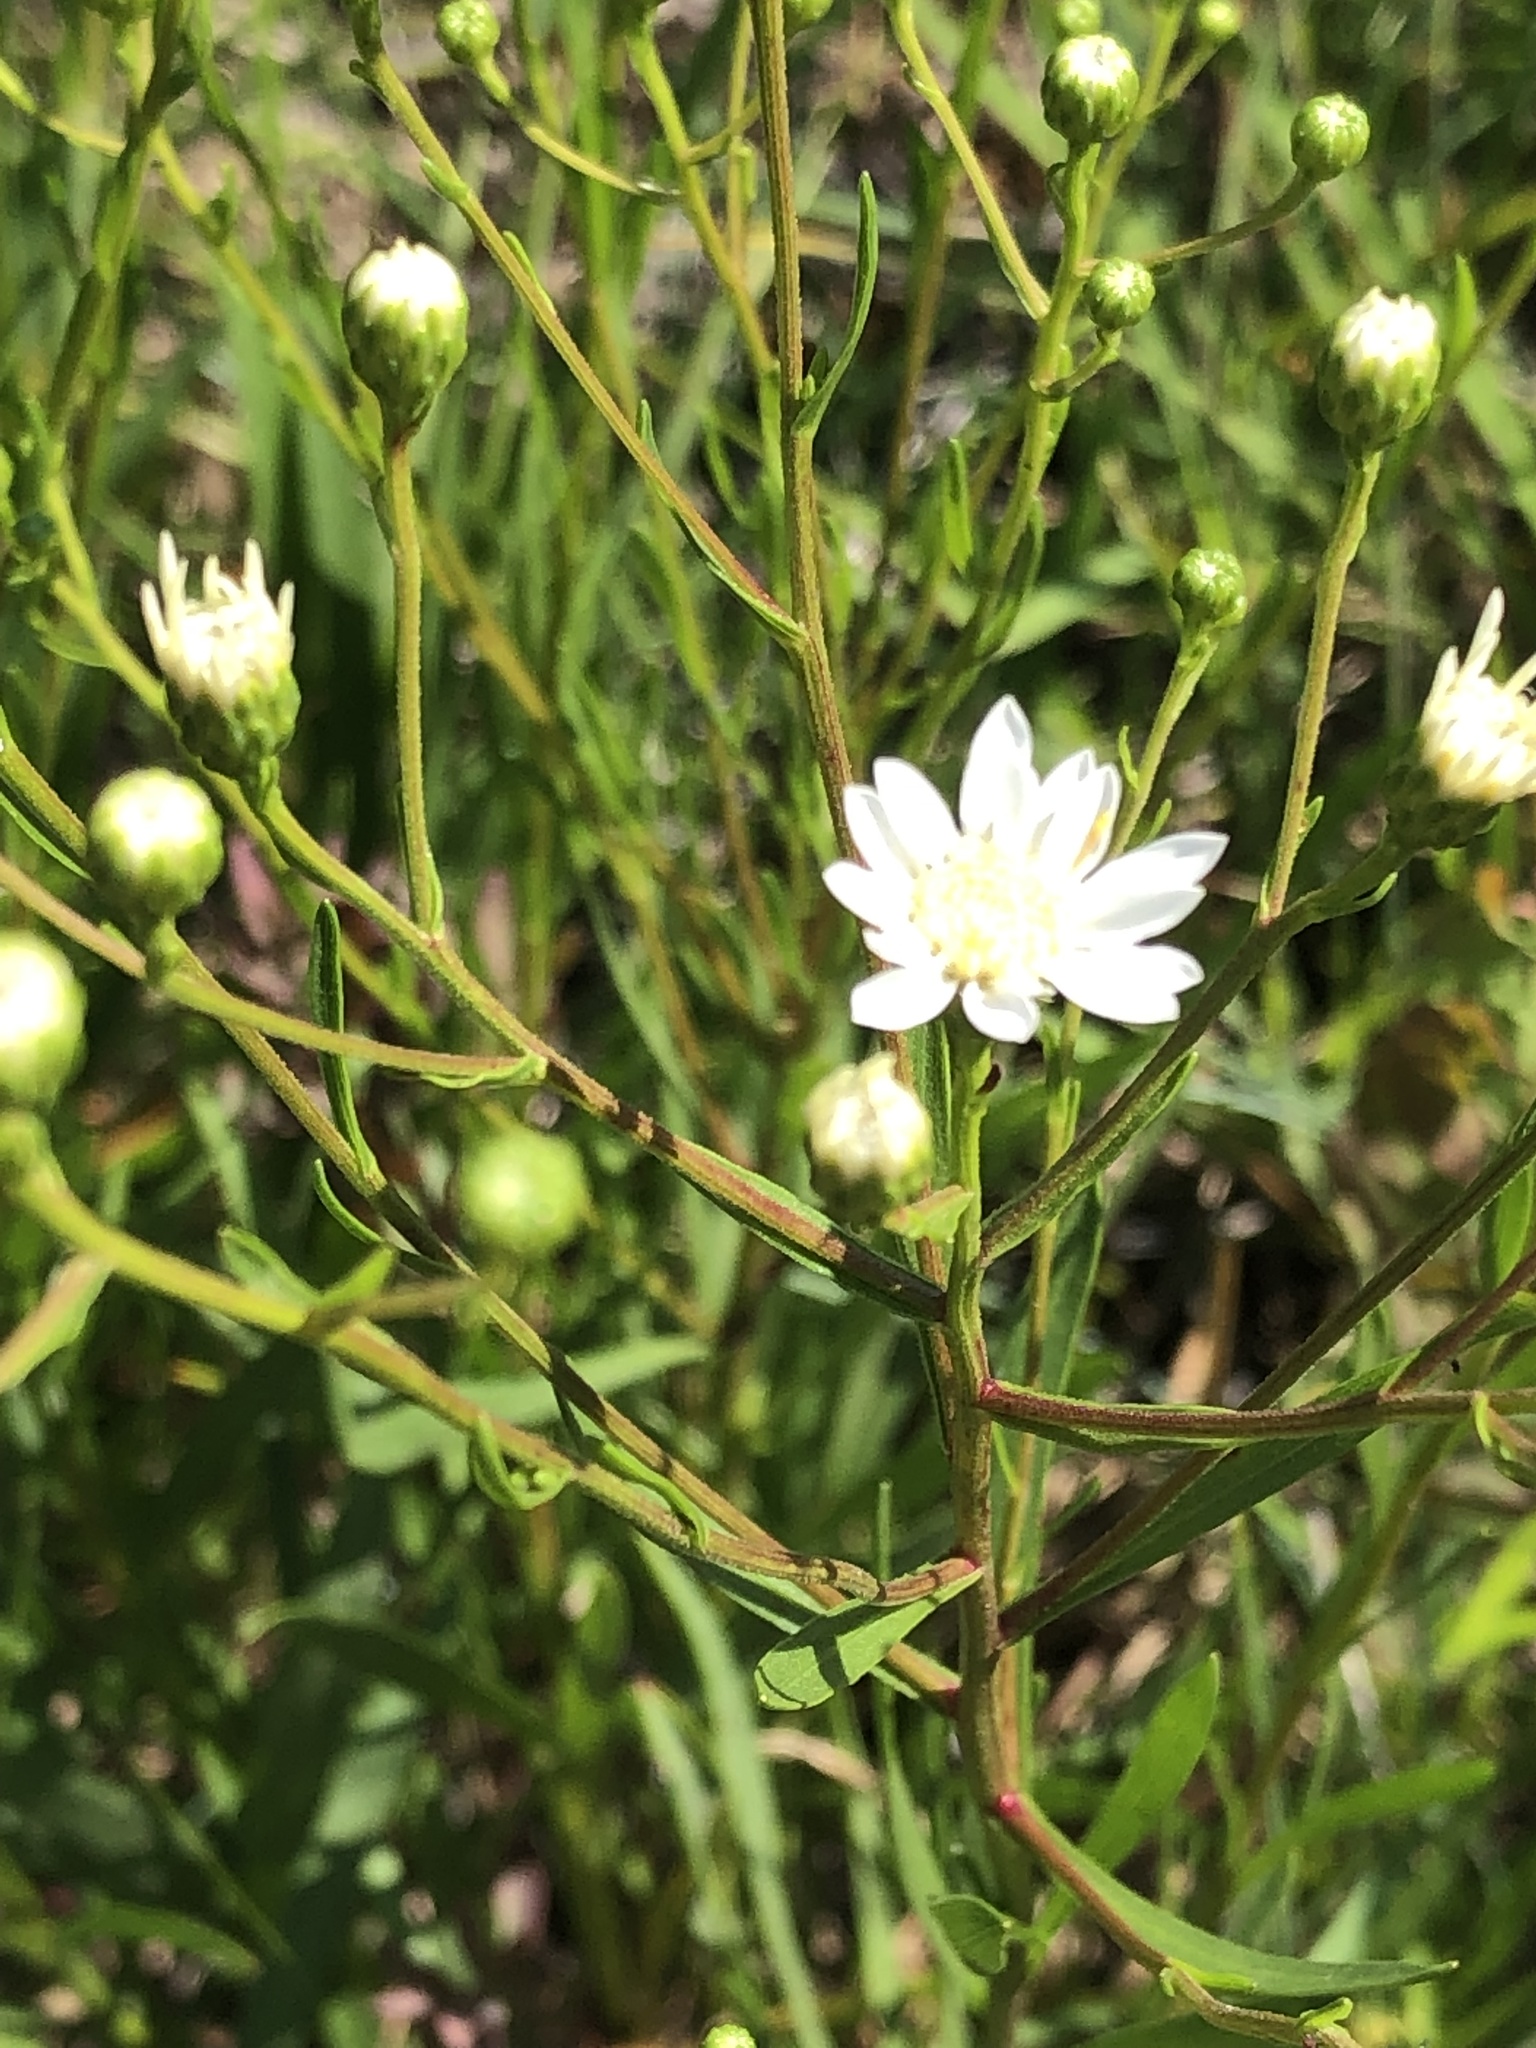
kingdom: Plantae
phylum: Tracheophyta
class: Magnoliopsida
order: Asterales
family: Asteraceae
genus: Solidago
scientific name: Solidago ptarmicoides
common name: White flat-top goldenrod
